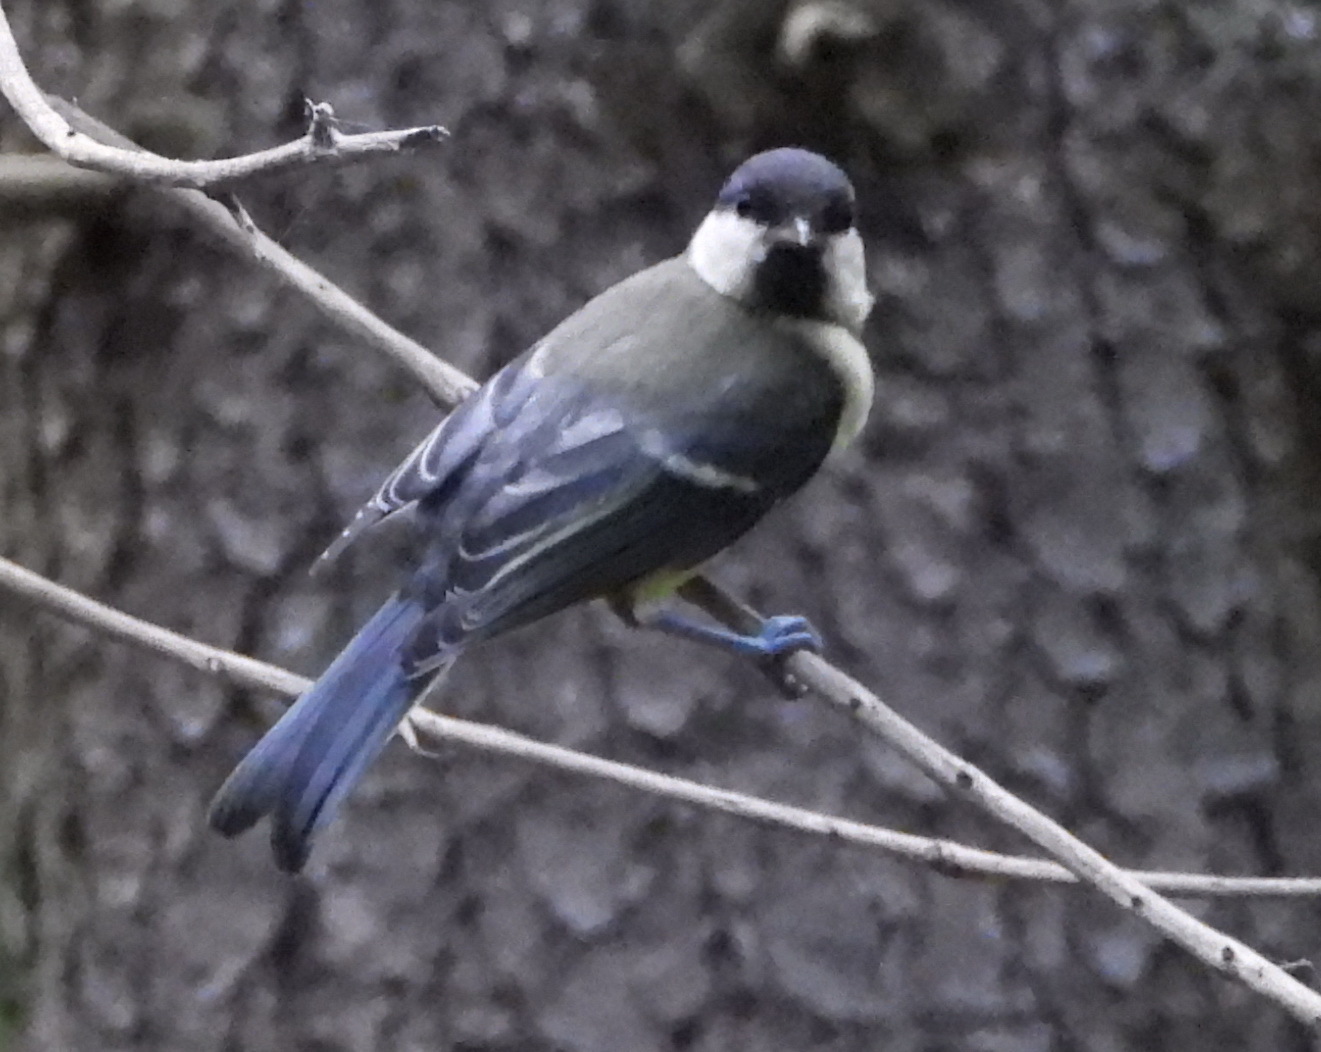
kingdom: Animalia
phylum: Chordata
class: Aves
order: Passeriformes
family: Paridae
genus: Parus
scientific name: Parus major
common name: Great tit
